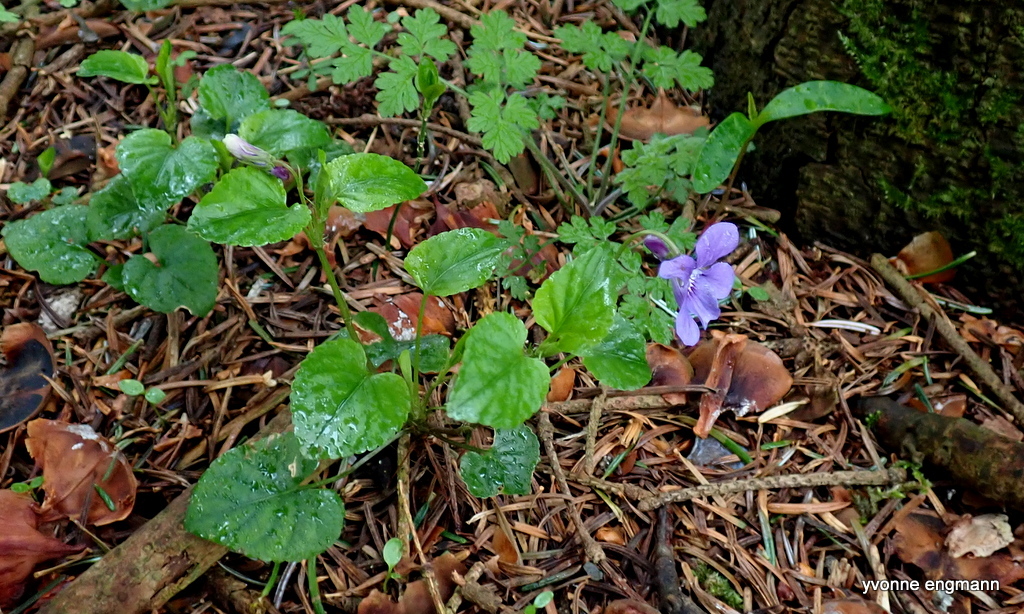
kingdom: Plantae
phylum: Tracheophyta
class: Magnoliopsida
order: Malpighiales
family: Violaceae
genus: Viola
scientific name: Viola reichenbachiana
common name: Early dog-violet
